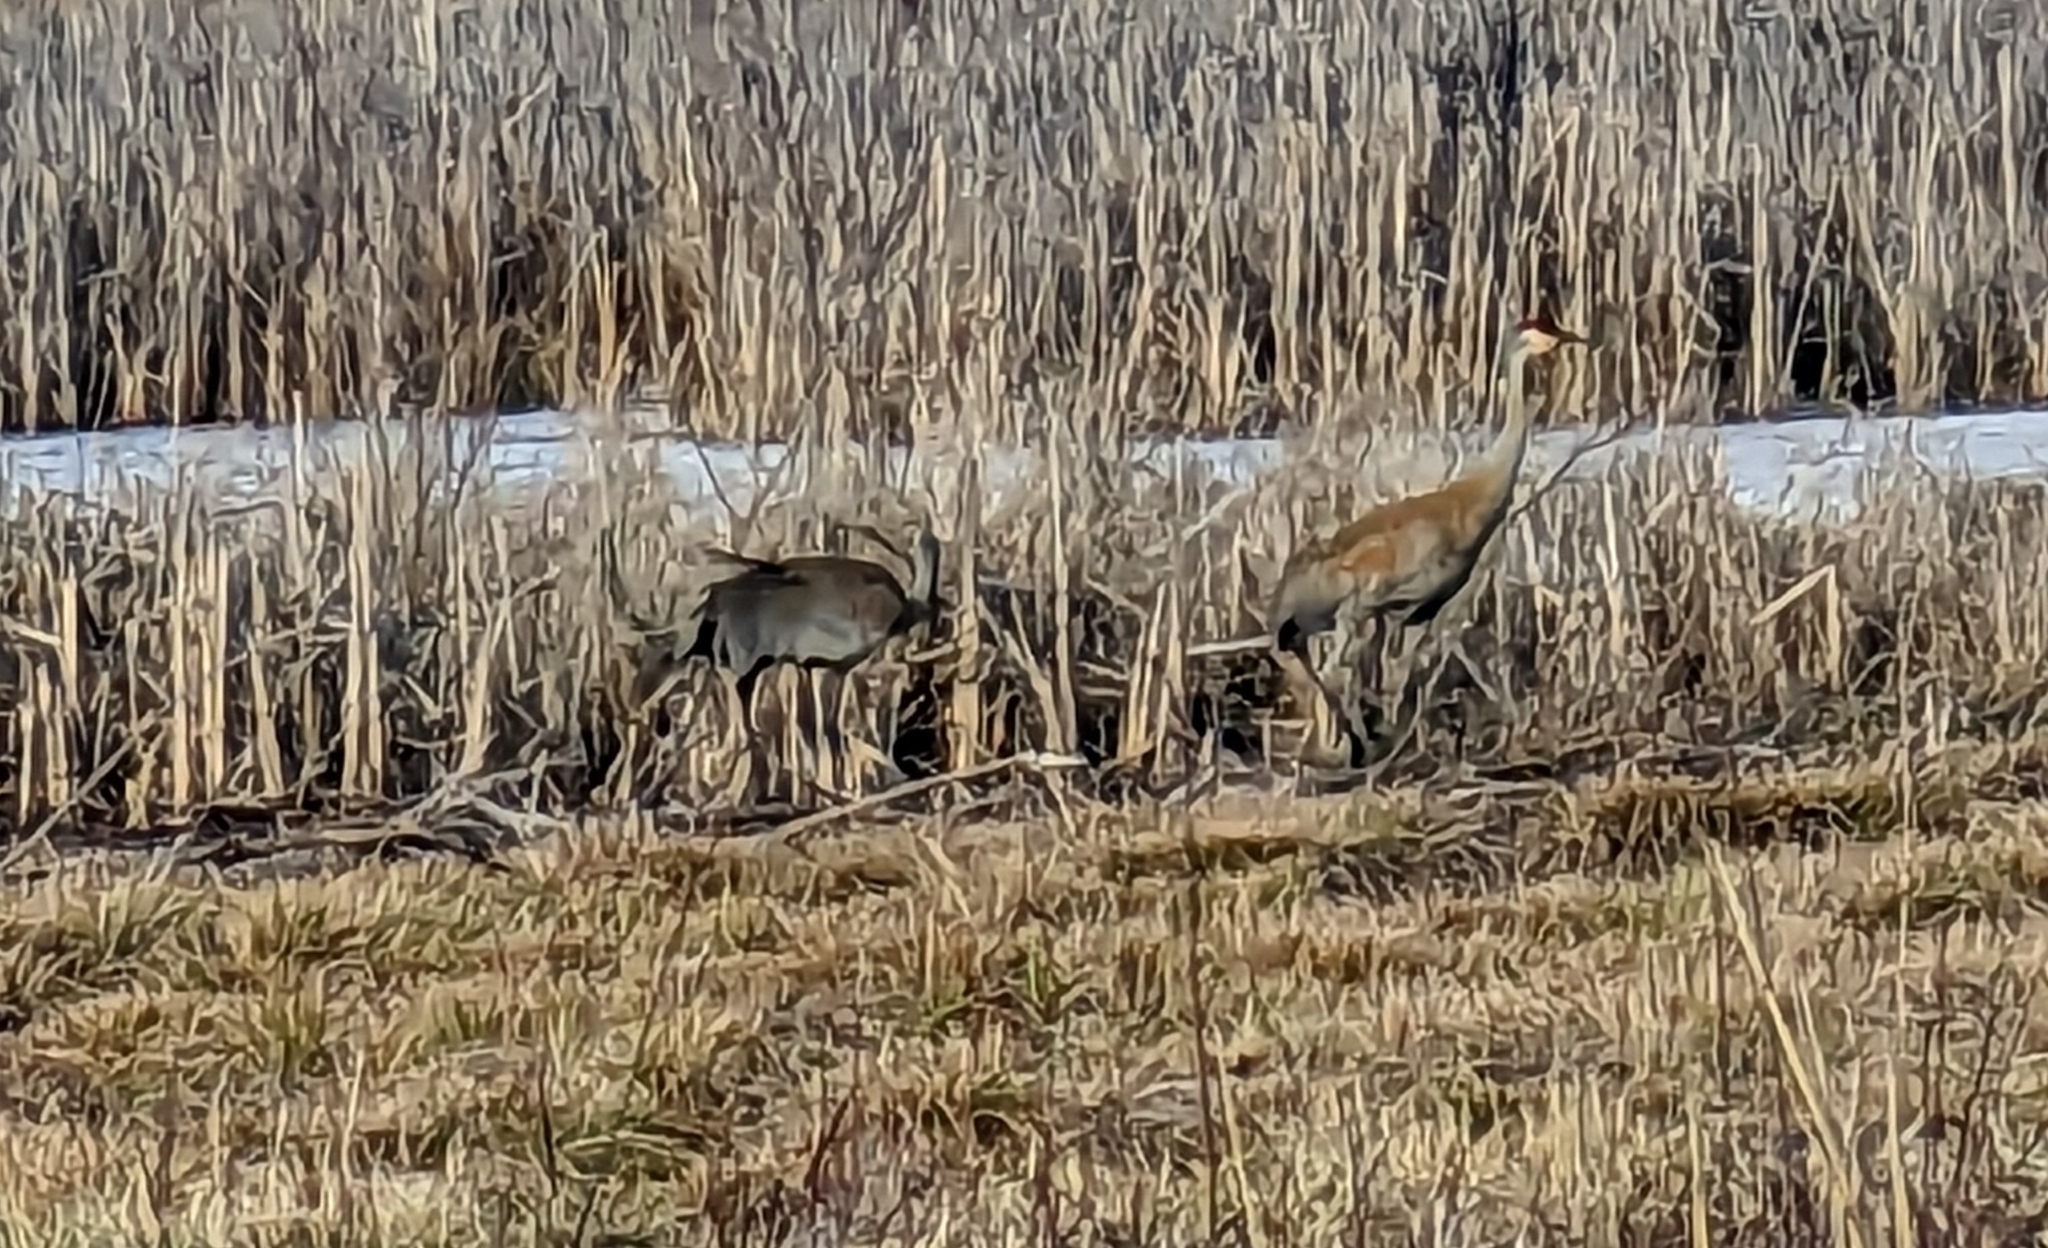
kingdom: Animalia
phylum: Chordata
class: Aves
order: Gruiformes
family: Gruidae
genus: Grus
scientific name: Grus canadensis
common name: Sandhill crane
